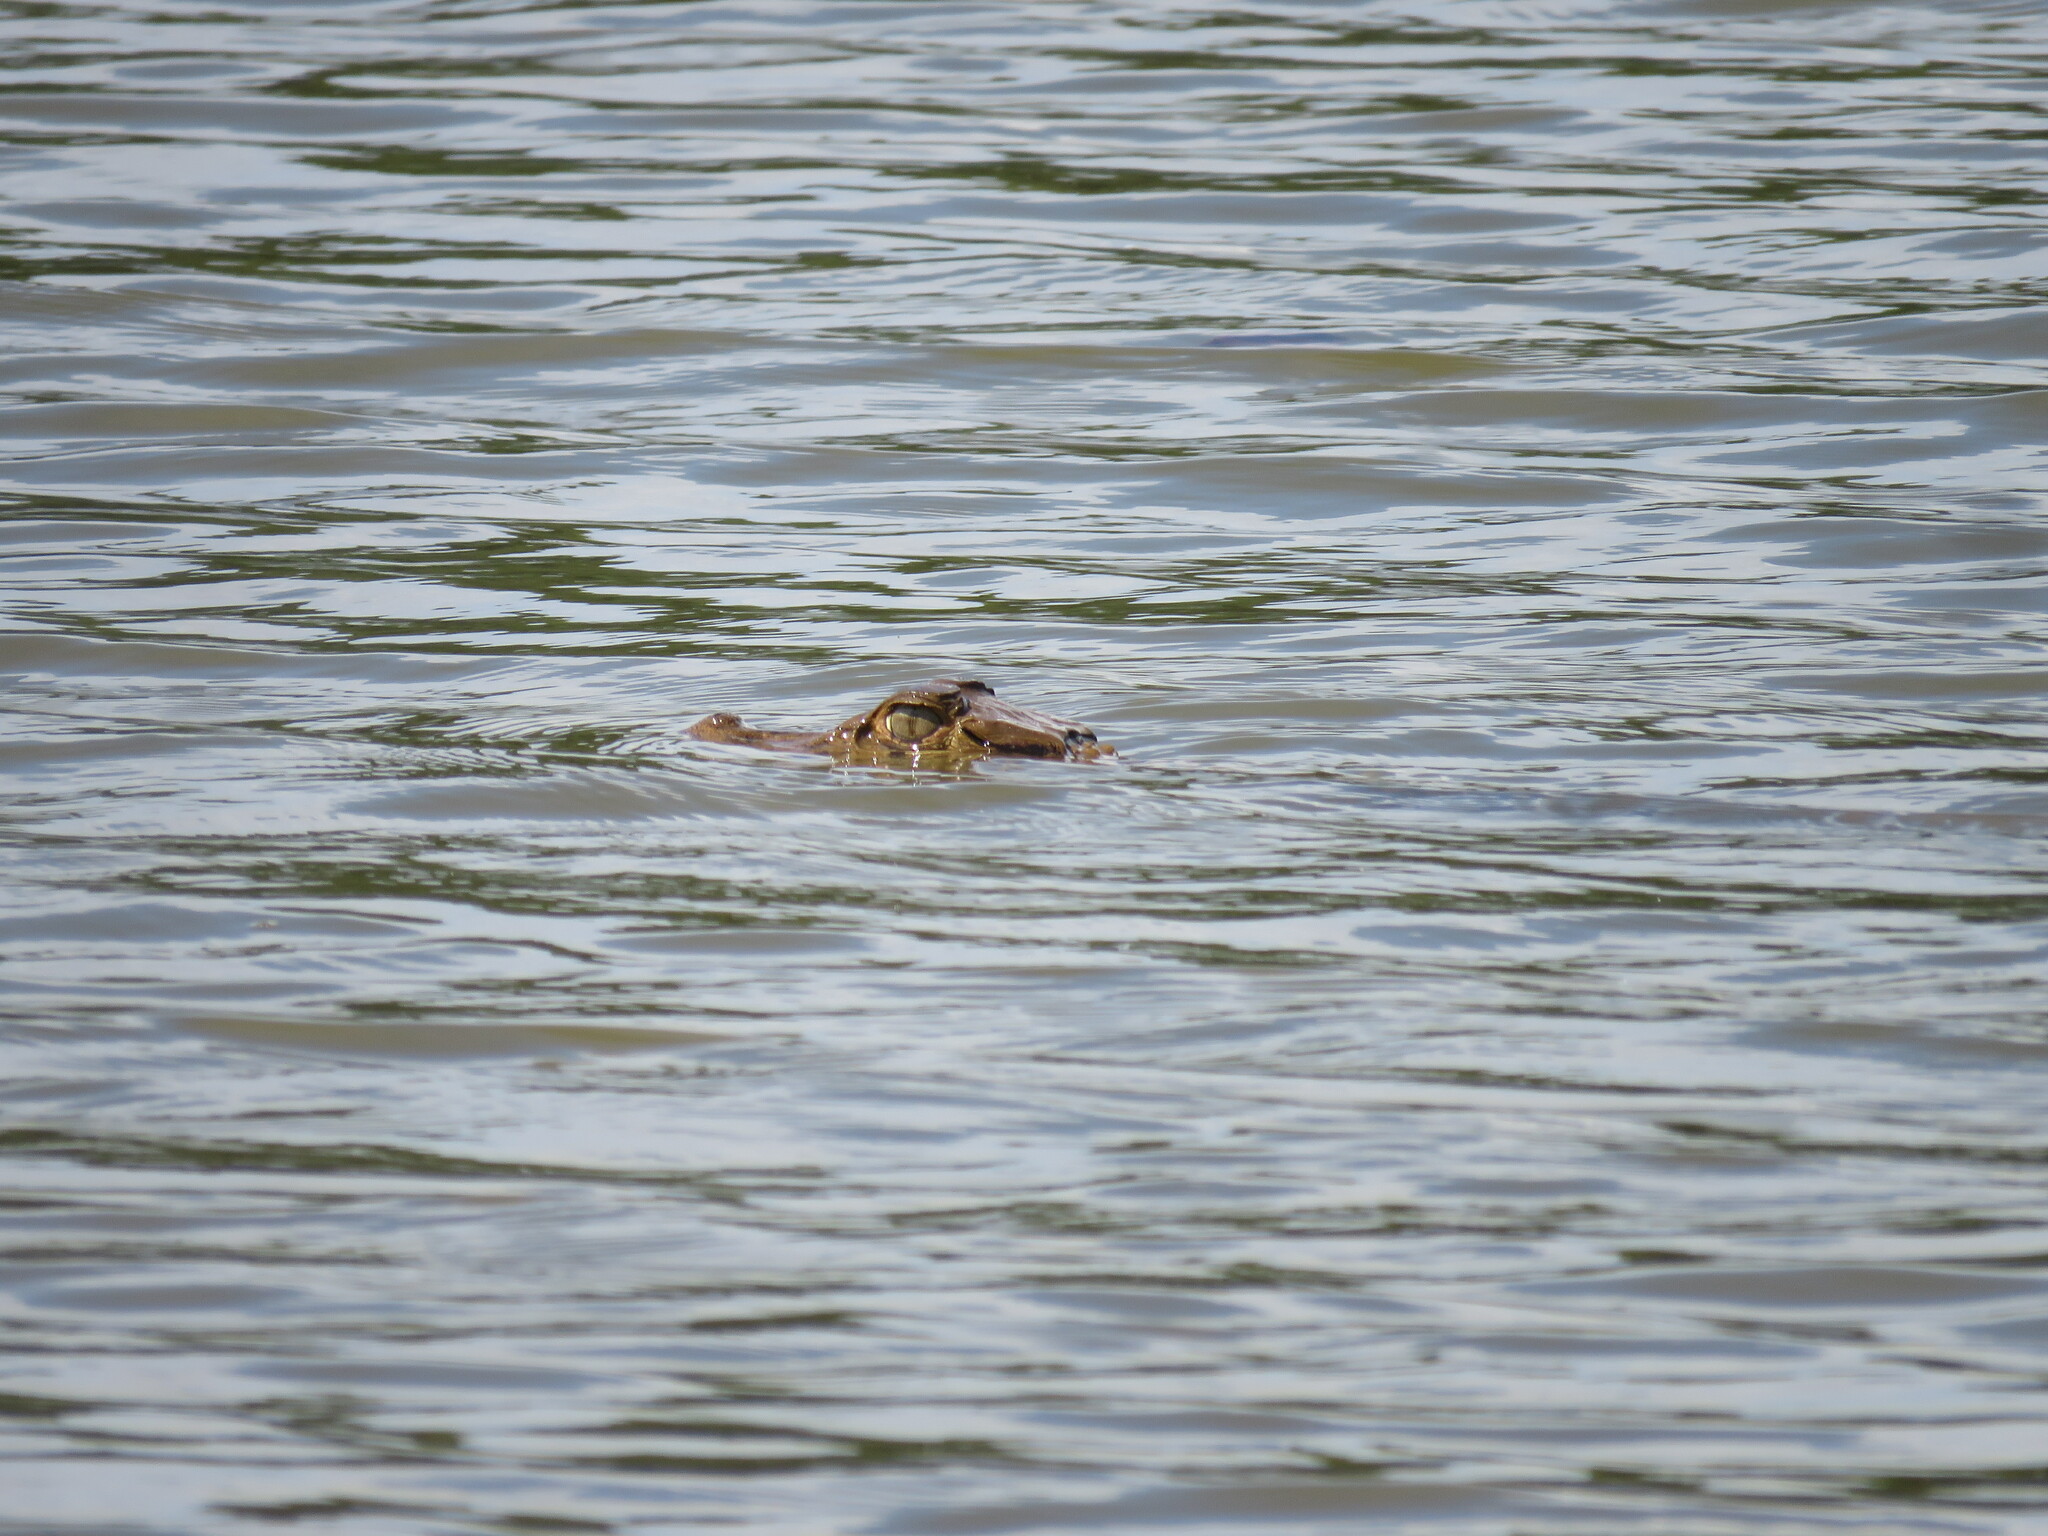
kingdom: Animalia
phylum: Chordata
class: Crocodylia
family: Alligatoridae
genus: Melanosuchus
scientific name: Melanosuchus niger
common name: Black caiman
